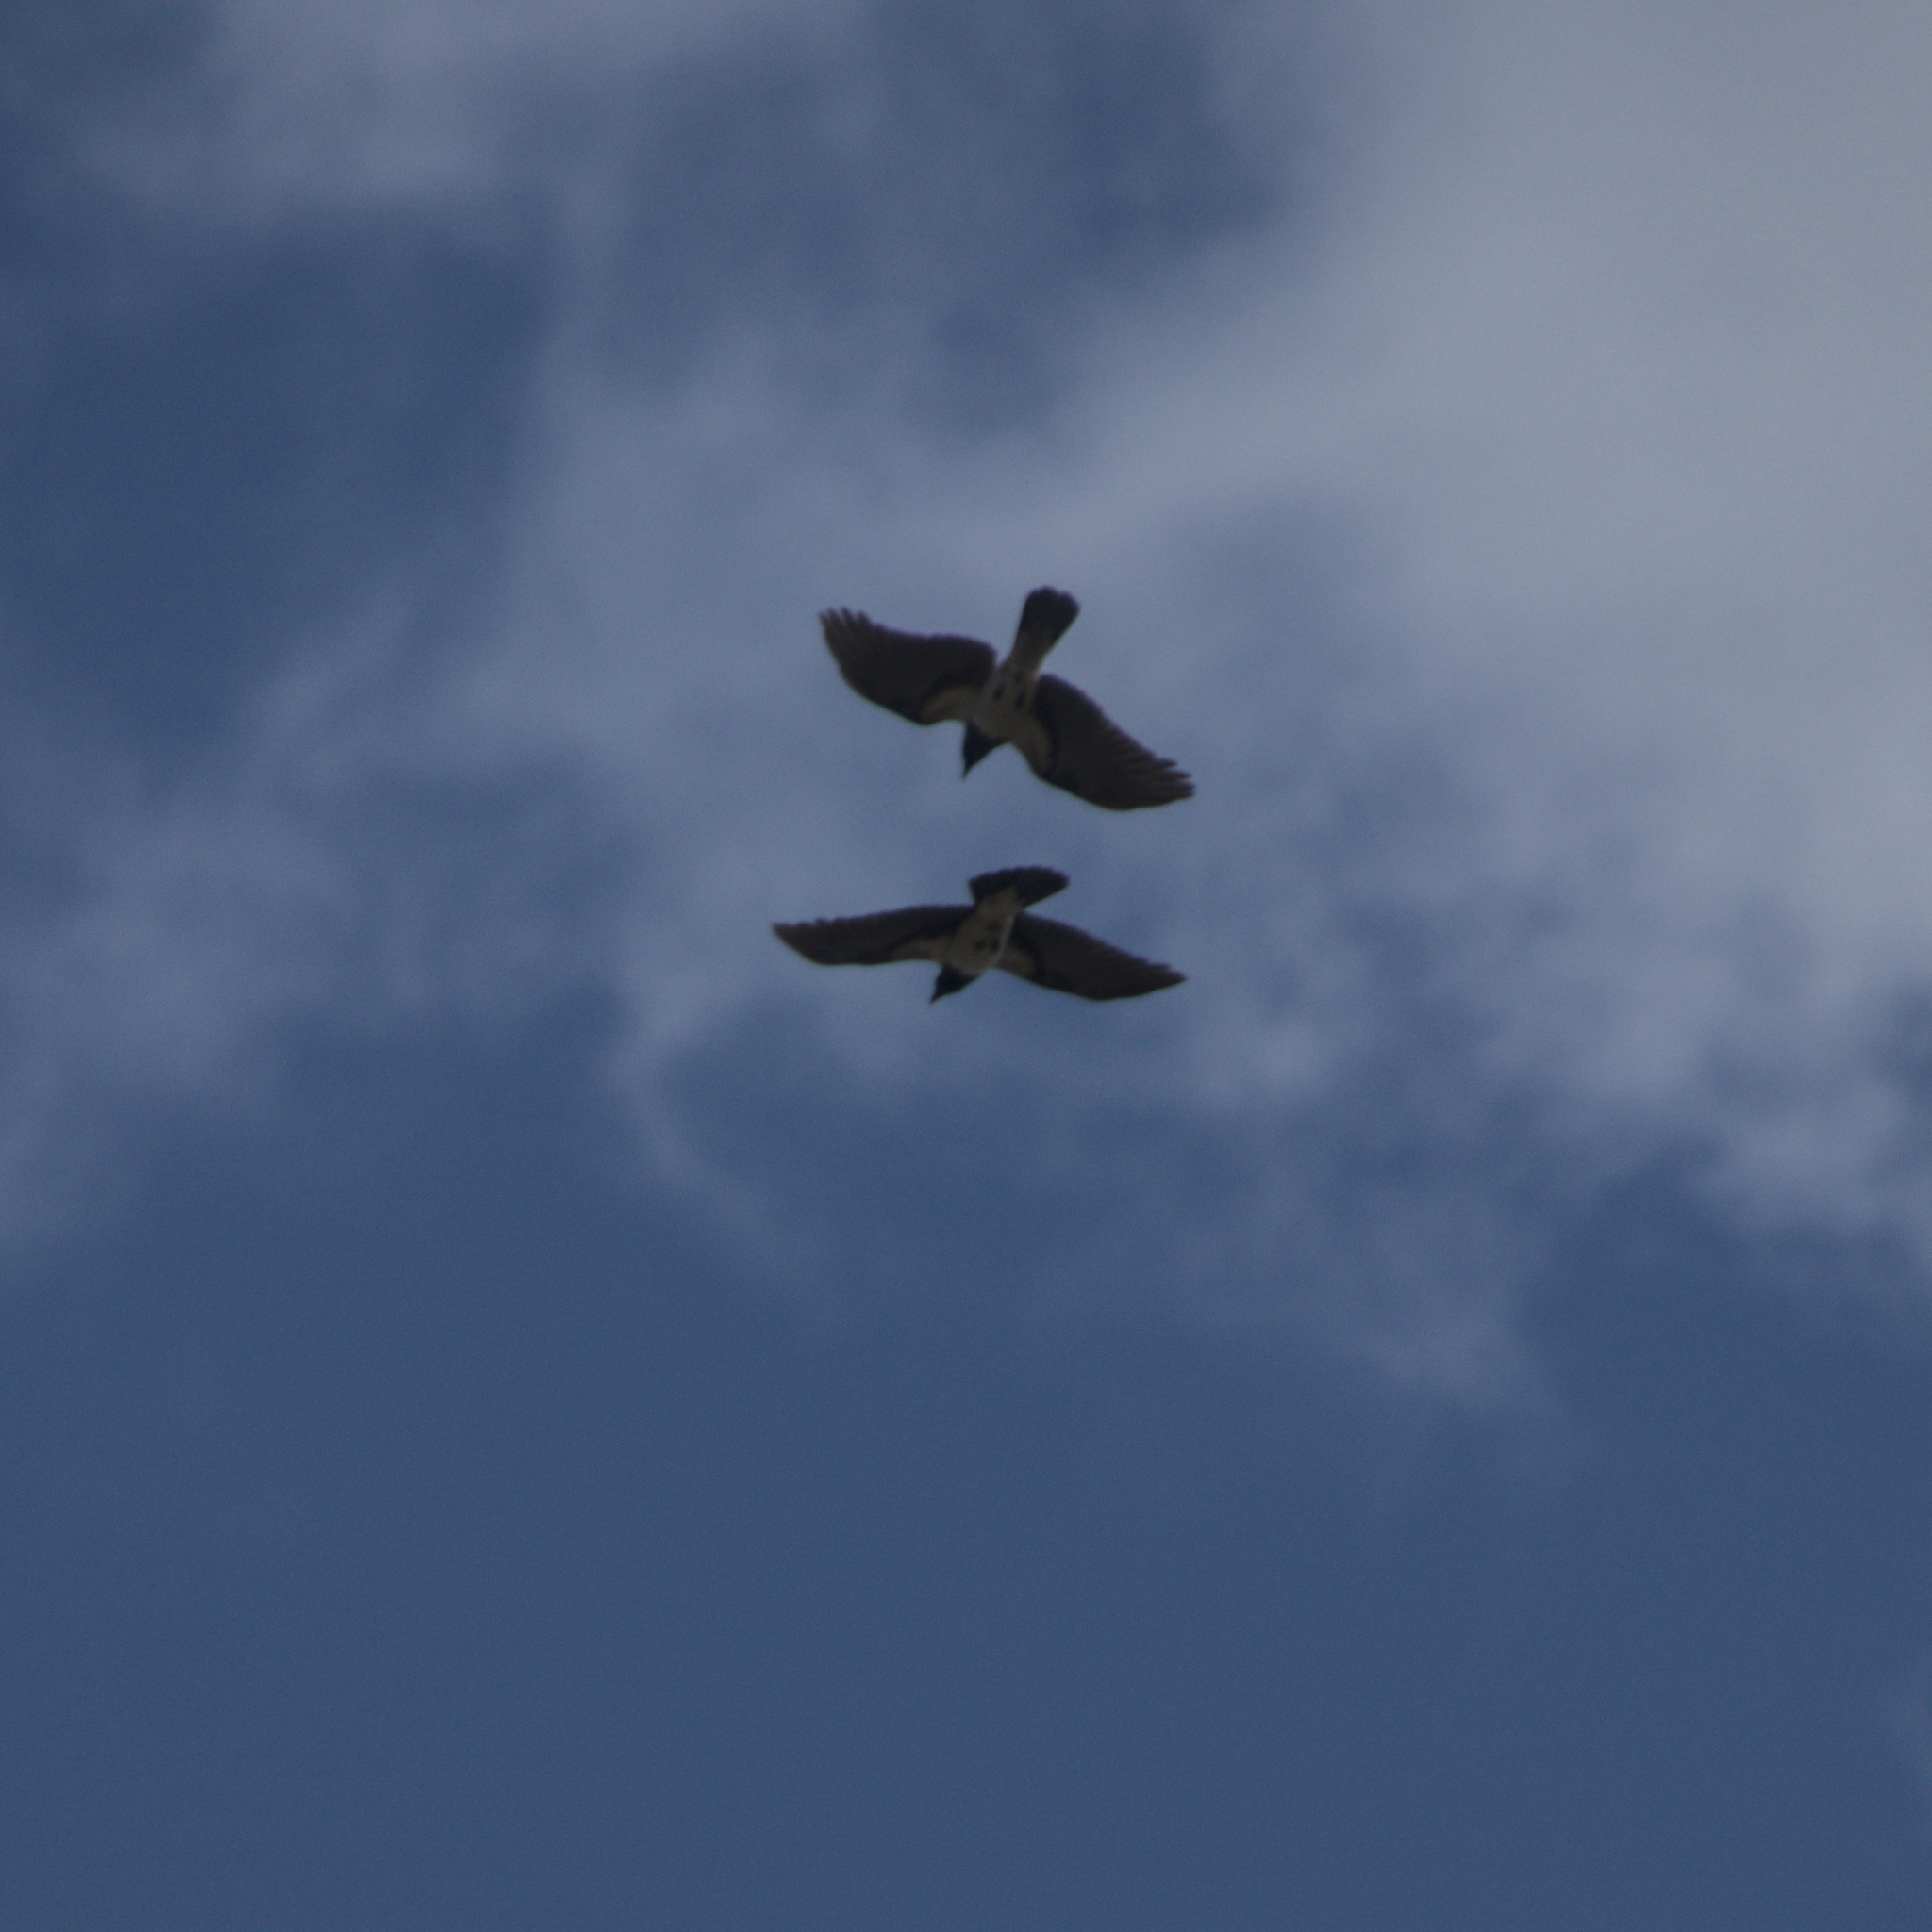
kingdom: Animalia
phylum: Chordata
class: Aves
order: Passeriformes
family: Corvidae
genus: Corvus
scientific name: Corvus cornix
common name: Hooded crow
